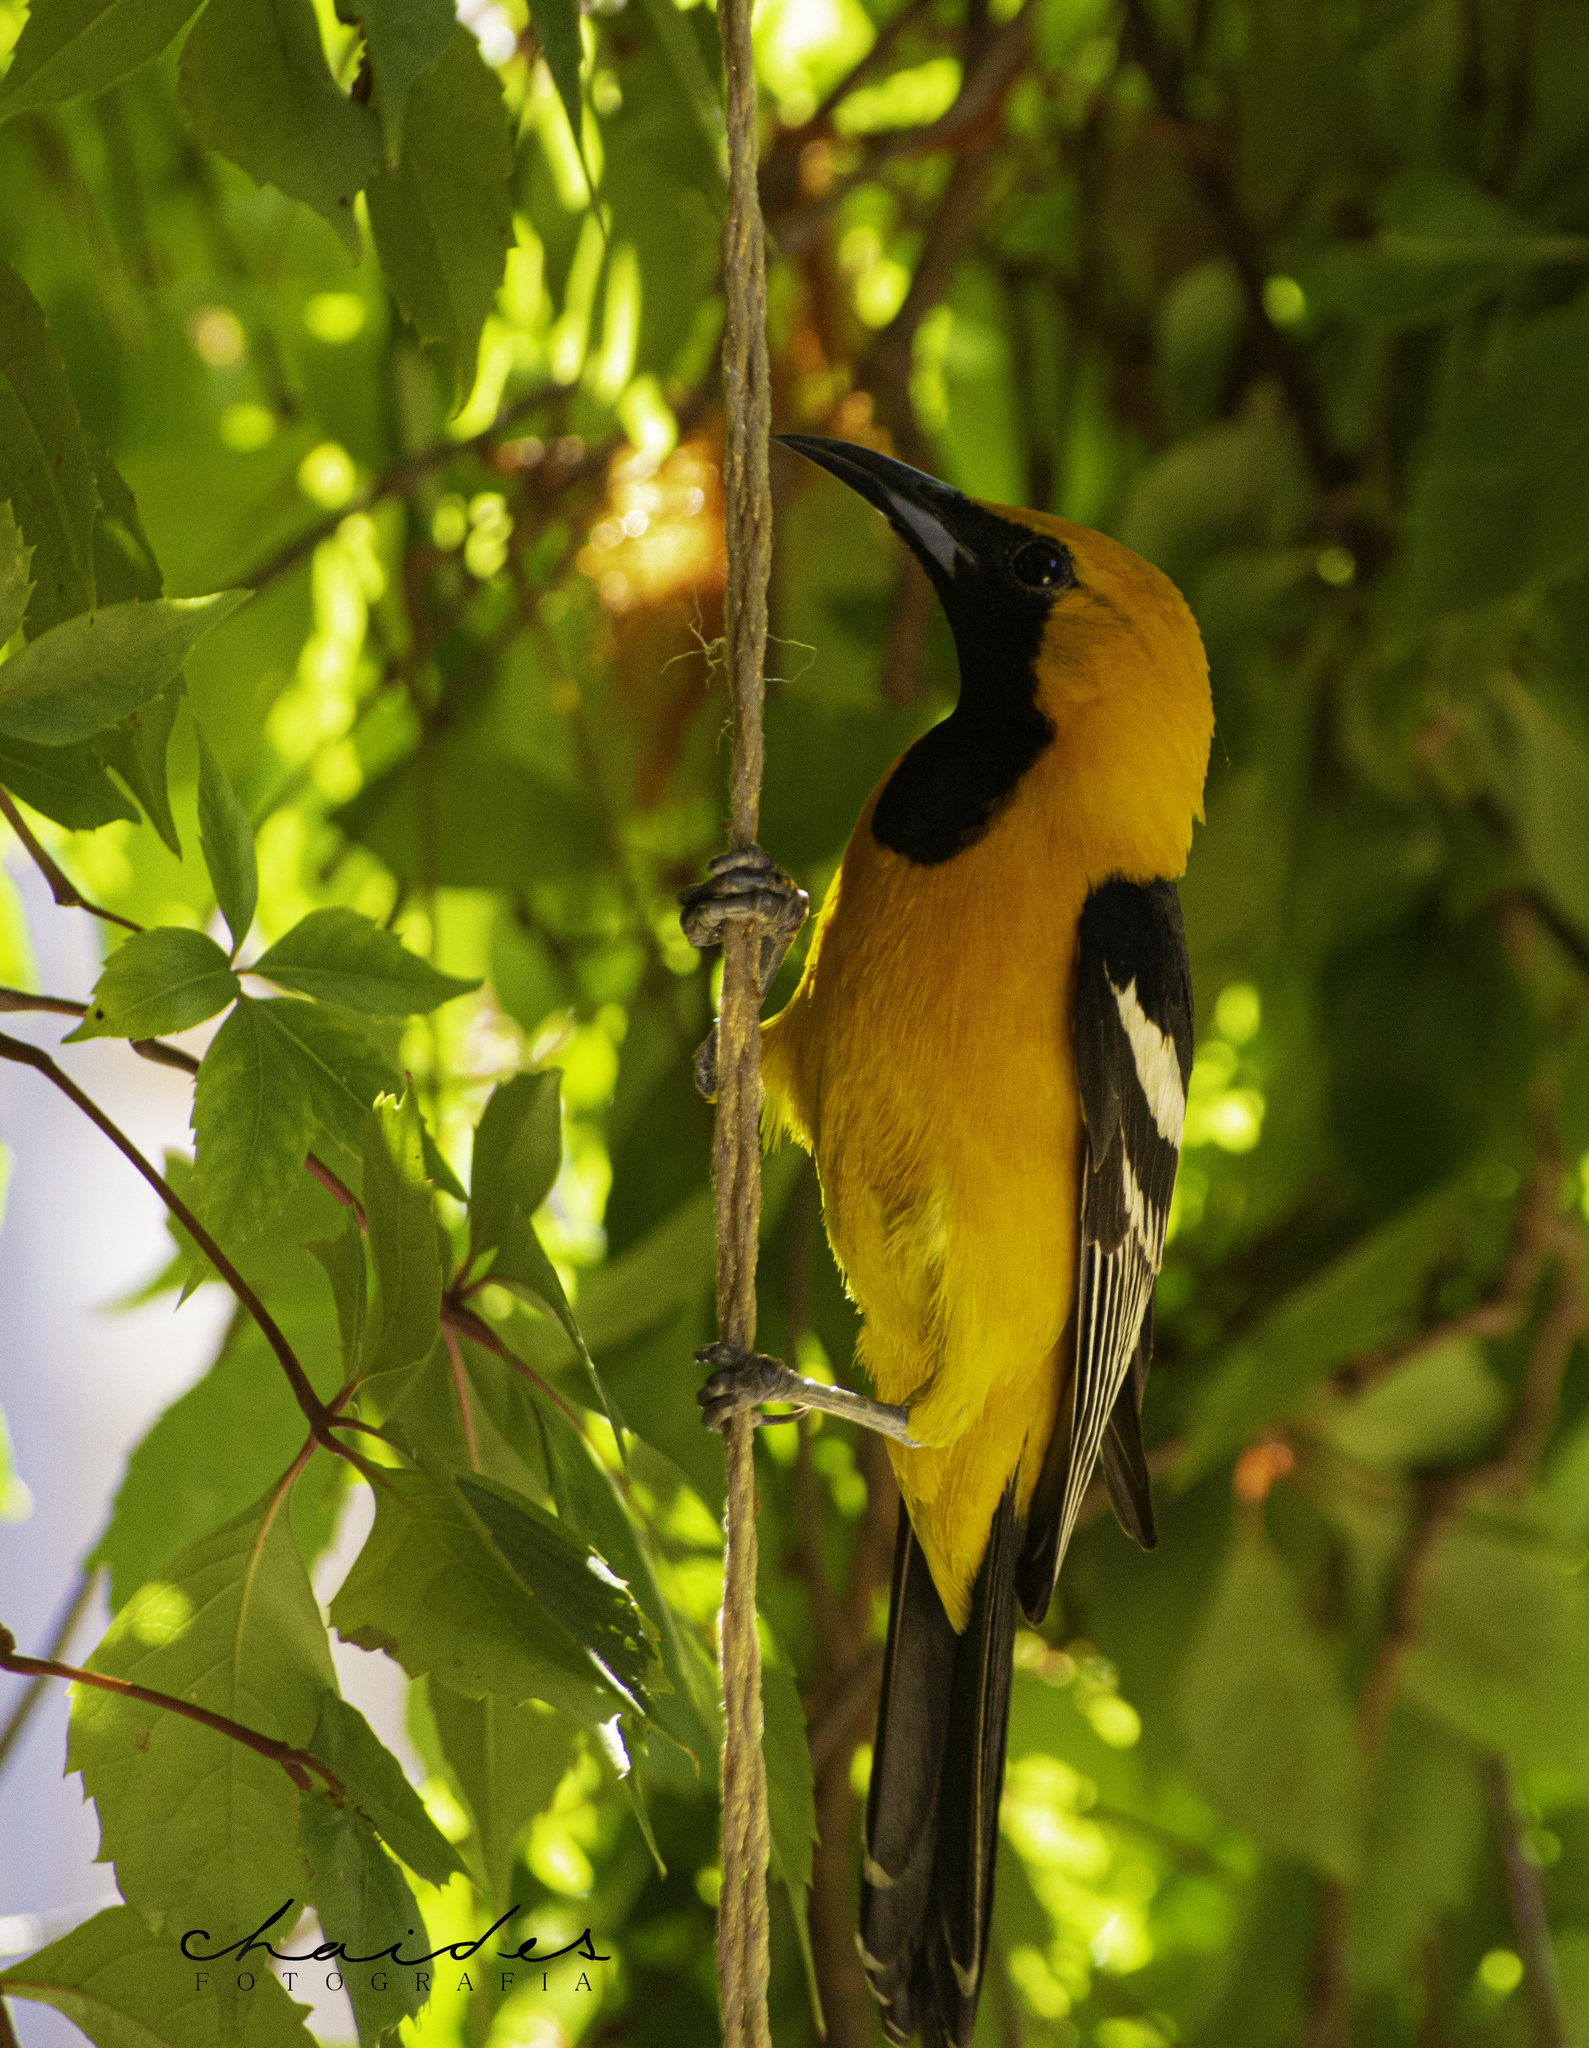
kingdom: Animalia
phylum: Chordata
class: Aves
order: Passeriformes
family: Icteridae
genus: Icterus
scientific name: Icterus cucullatus
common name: Hooded oriole
